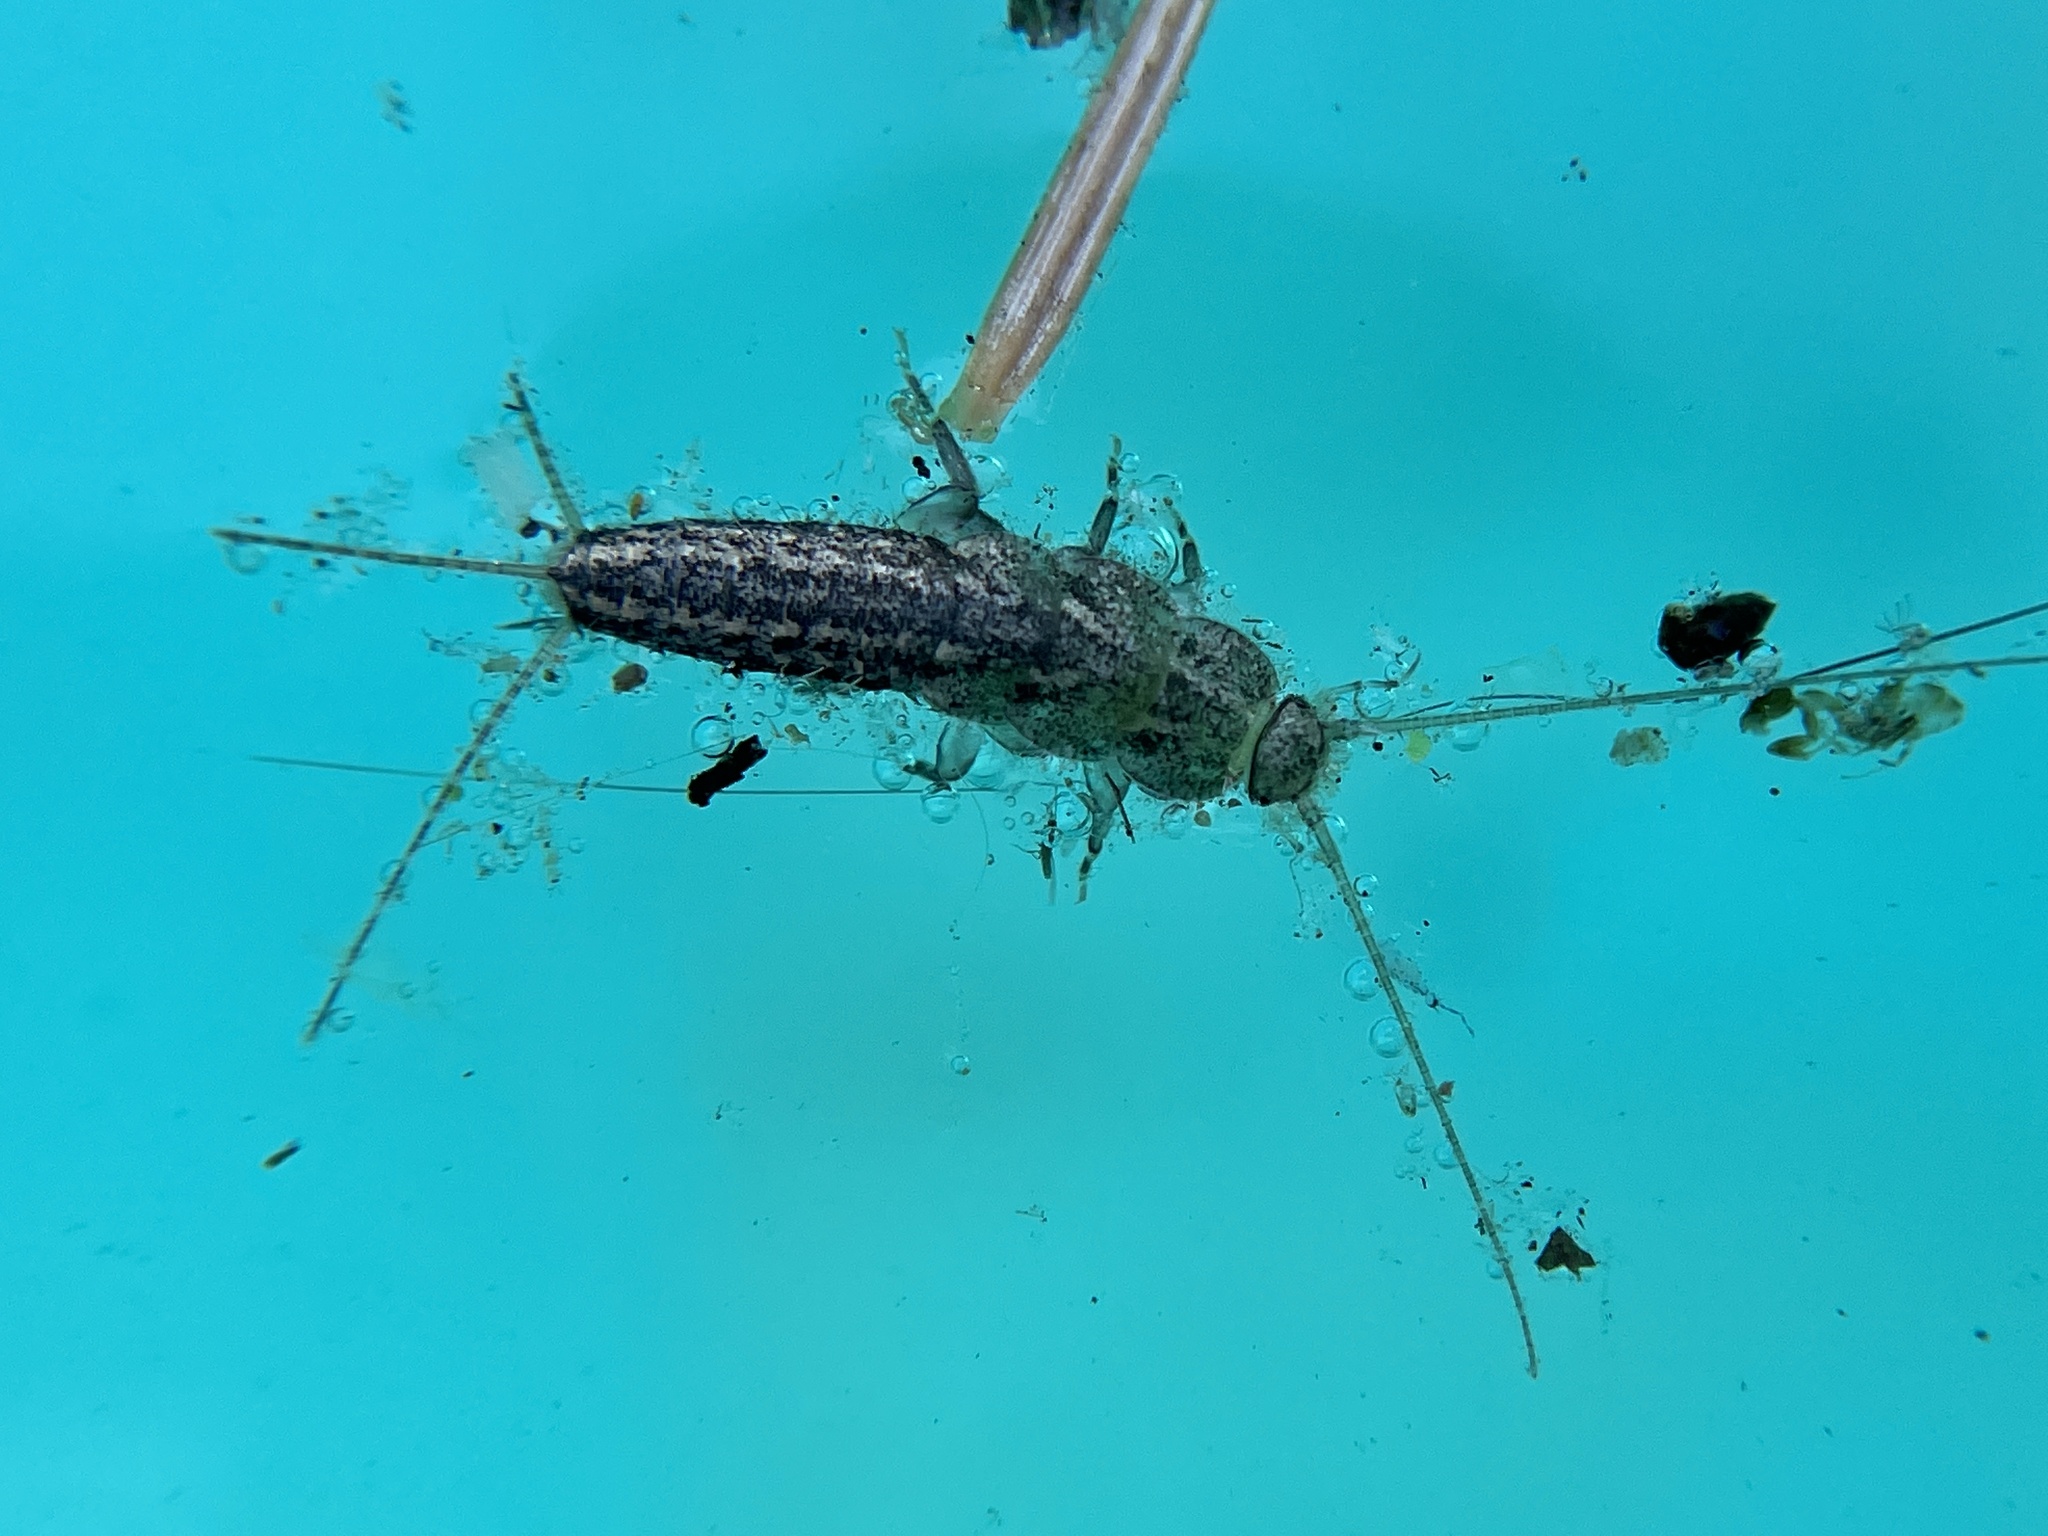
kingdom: Animalia
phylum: Arthropoda
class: Insecta
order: Zygentoma
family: Lepismatidae
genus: Ctenolepisma
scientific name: Ctenolepisma lineata
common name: Four-lined silverfish
